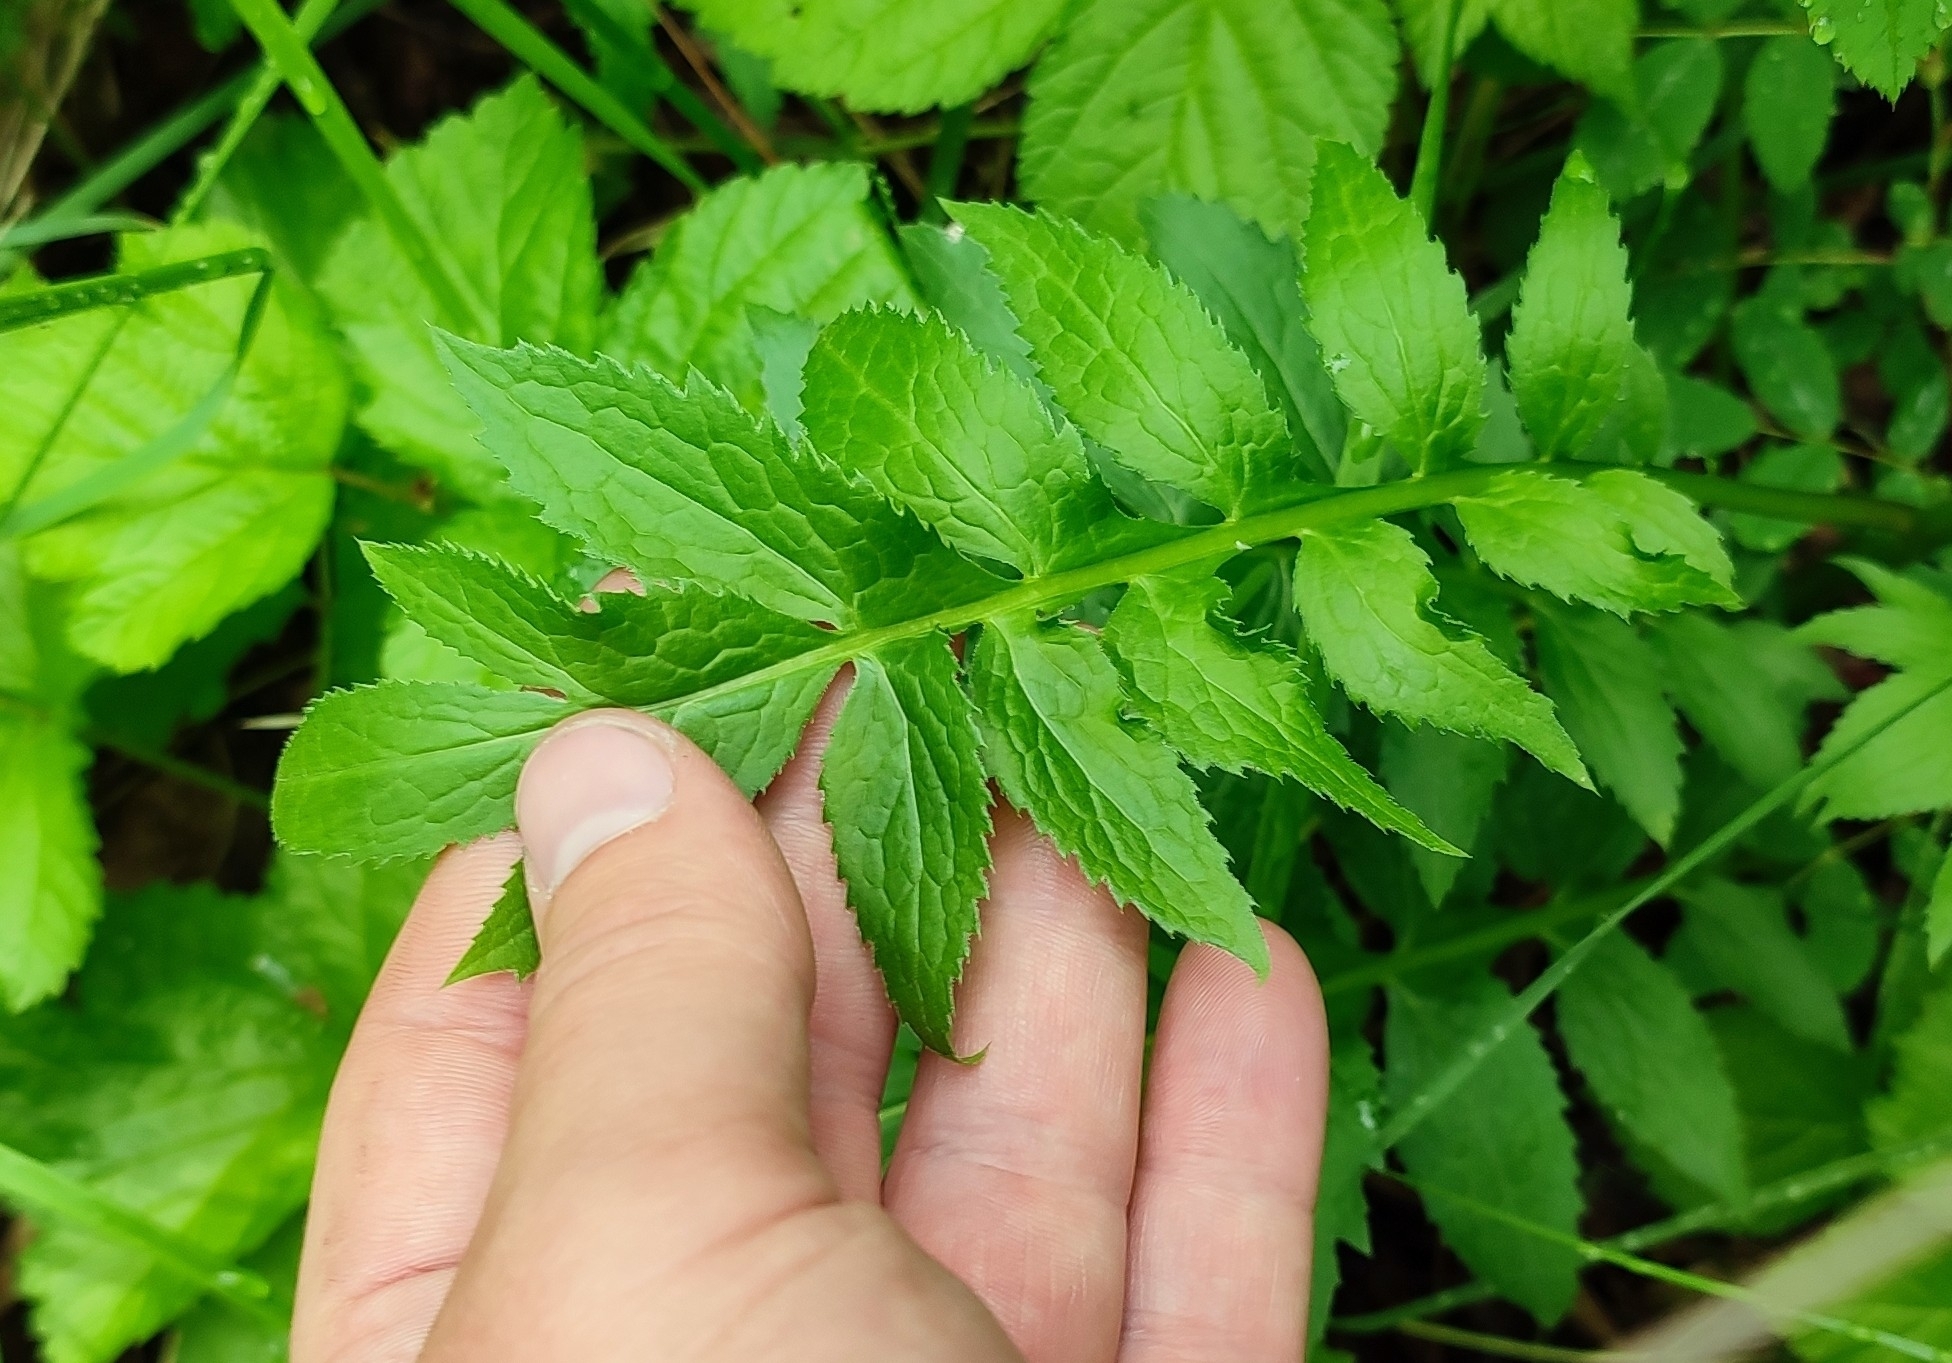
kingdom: Plantae
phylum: Tracheophyta
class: Magnoliopsida
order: Asterales
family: Asteraceae
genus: Serratula
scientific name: Serratula coronata
